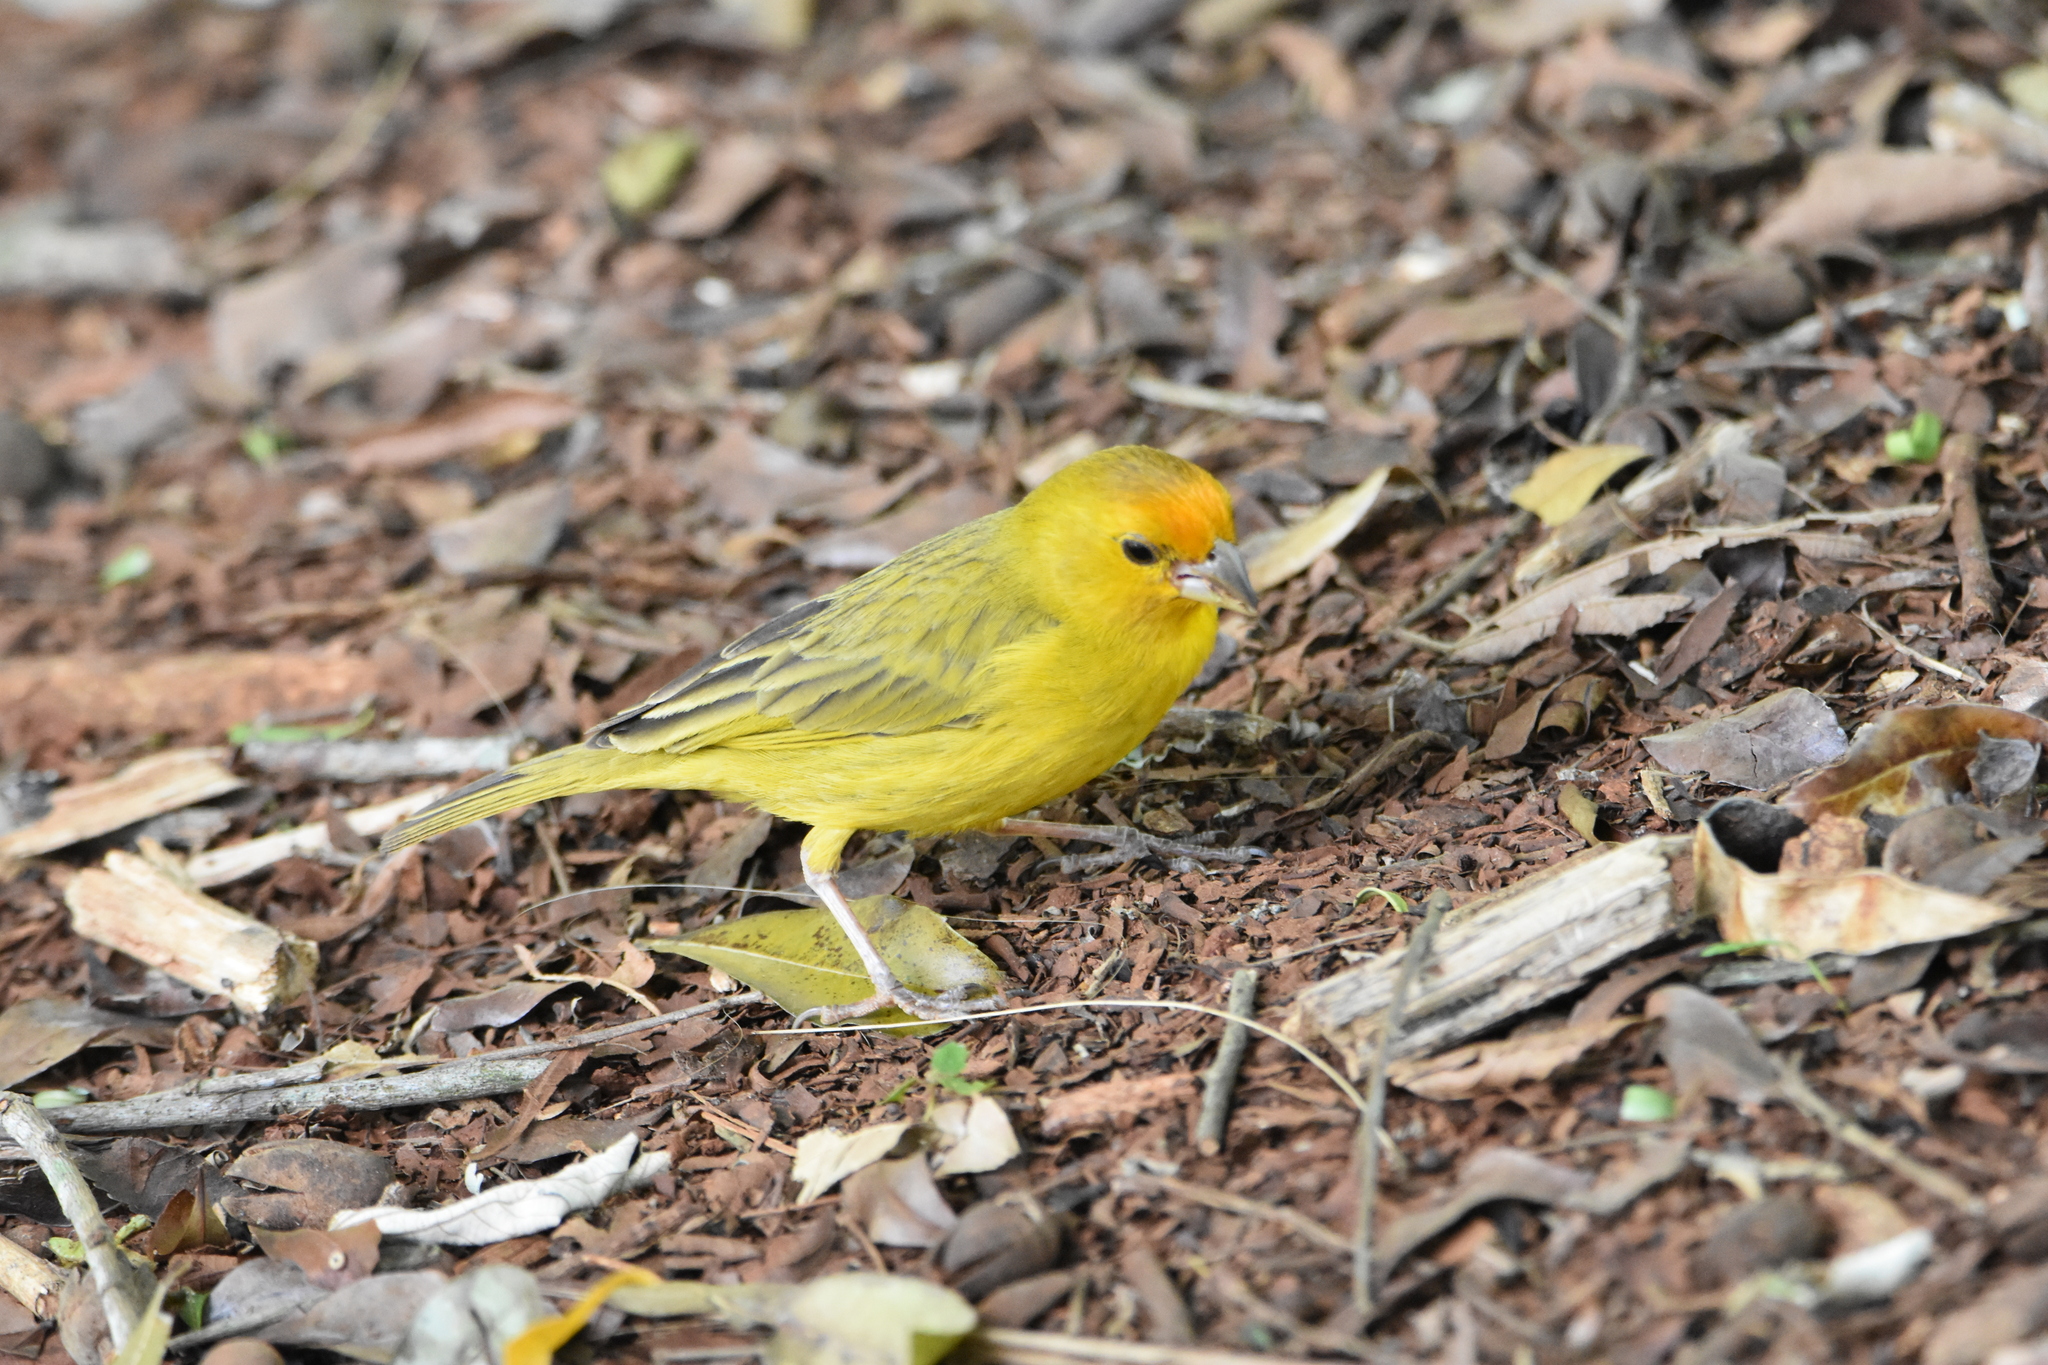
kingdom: Animalia
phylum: Chordata
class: Aves
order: Passeriformes
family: Thraupidae
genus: Sicalis
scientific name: Sicalis flaveola
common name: Saffron finch
